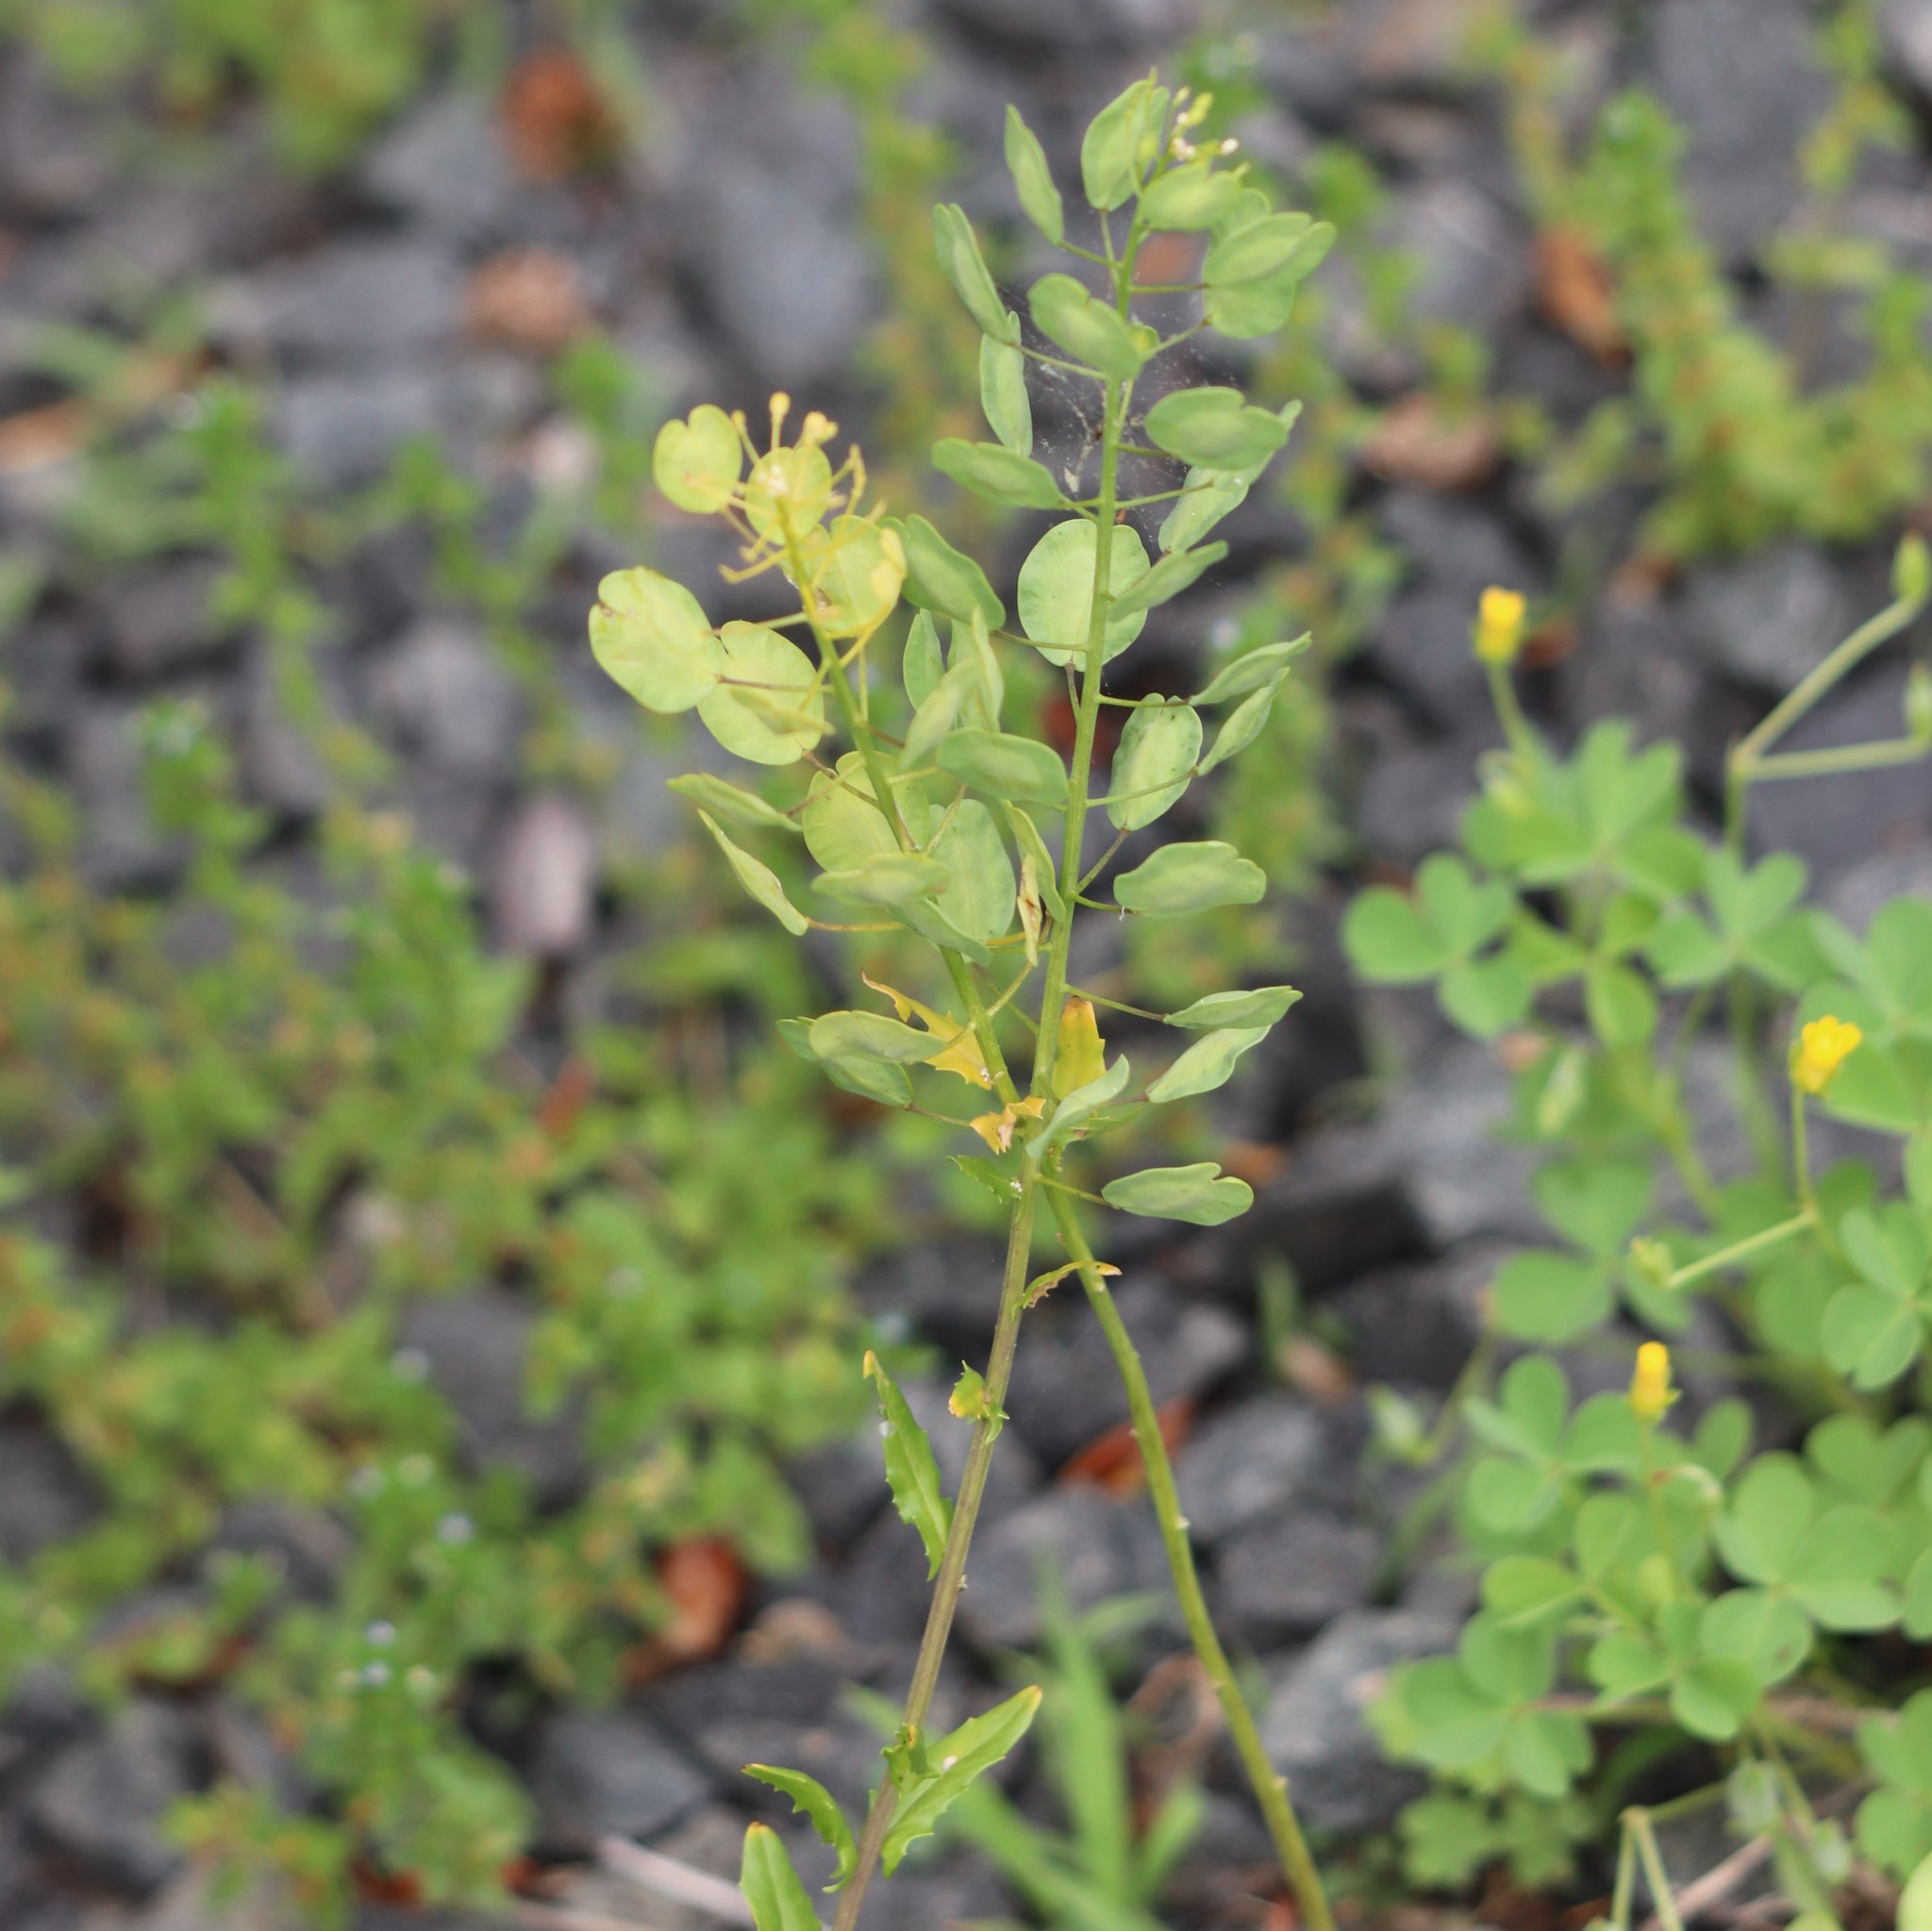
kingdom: Plantae
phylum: Tracheophyta
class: Magnoliopsida
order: Brassicales
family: Brassicaceae
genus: Thlaspi
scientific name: Thlaspi arvense
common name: Field pennycress
